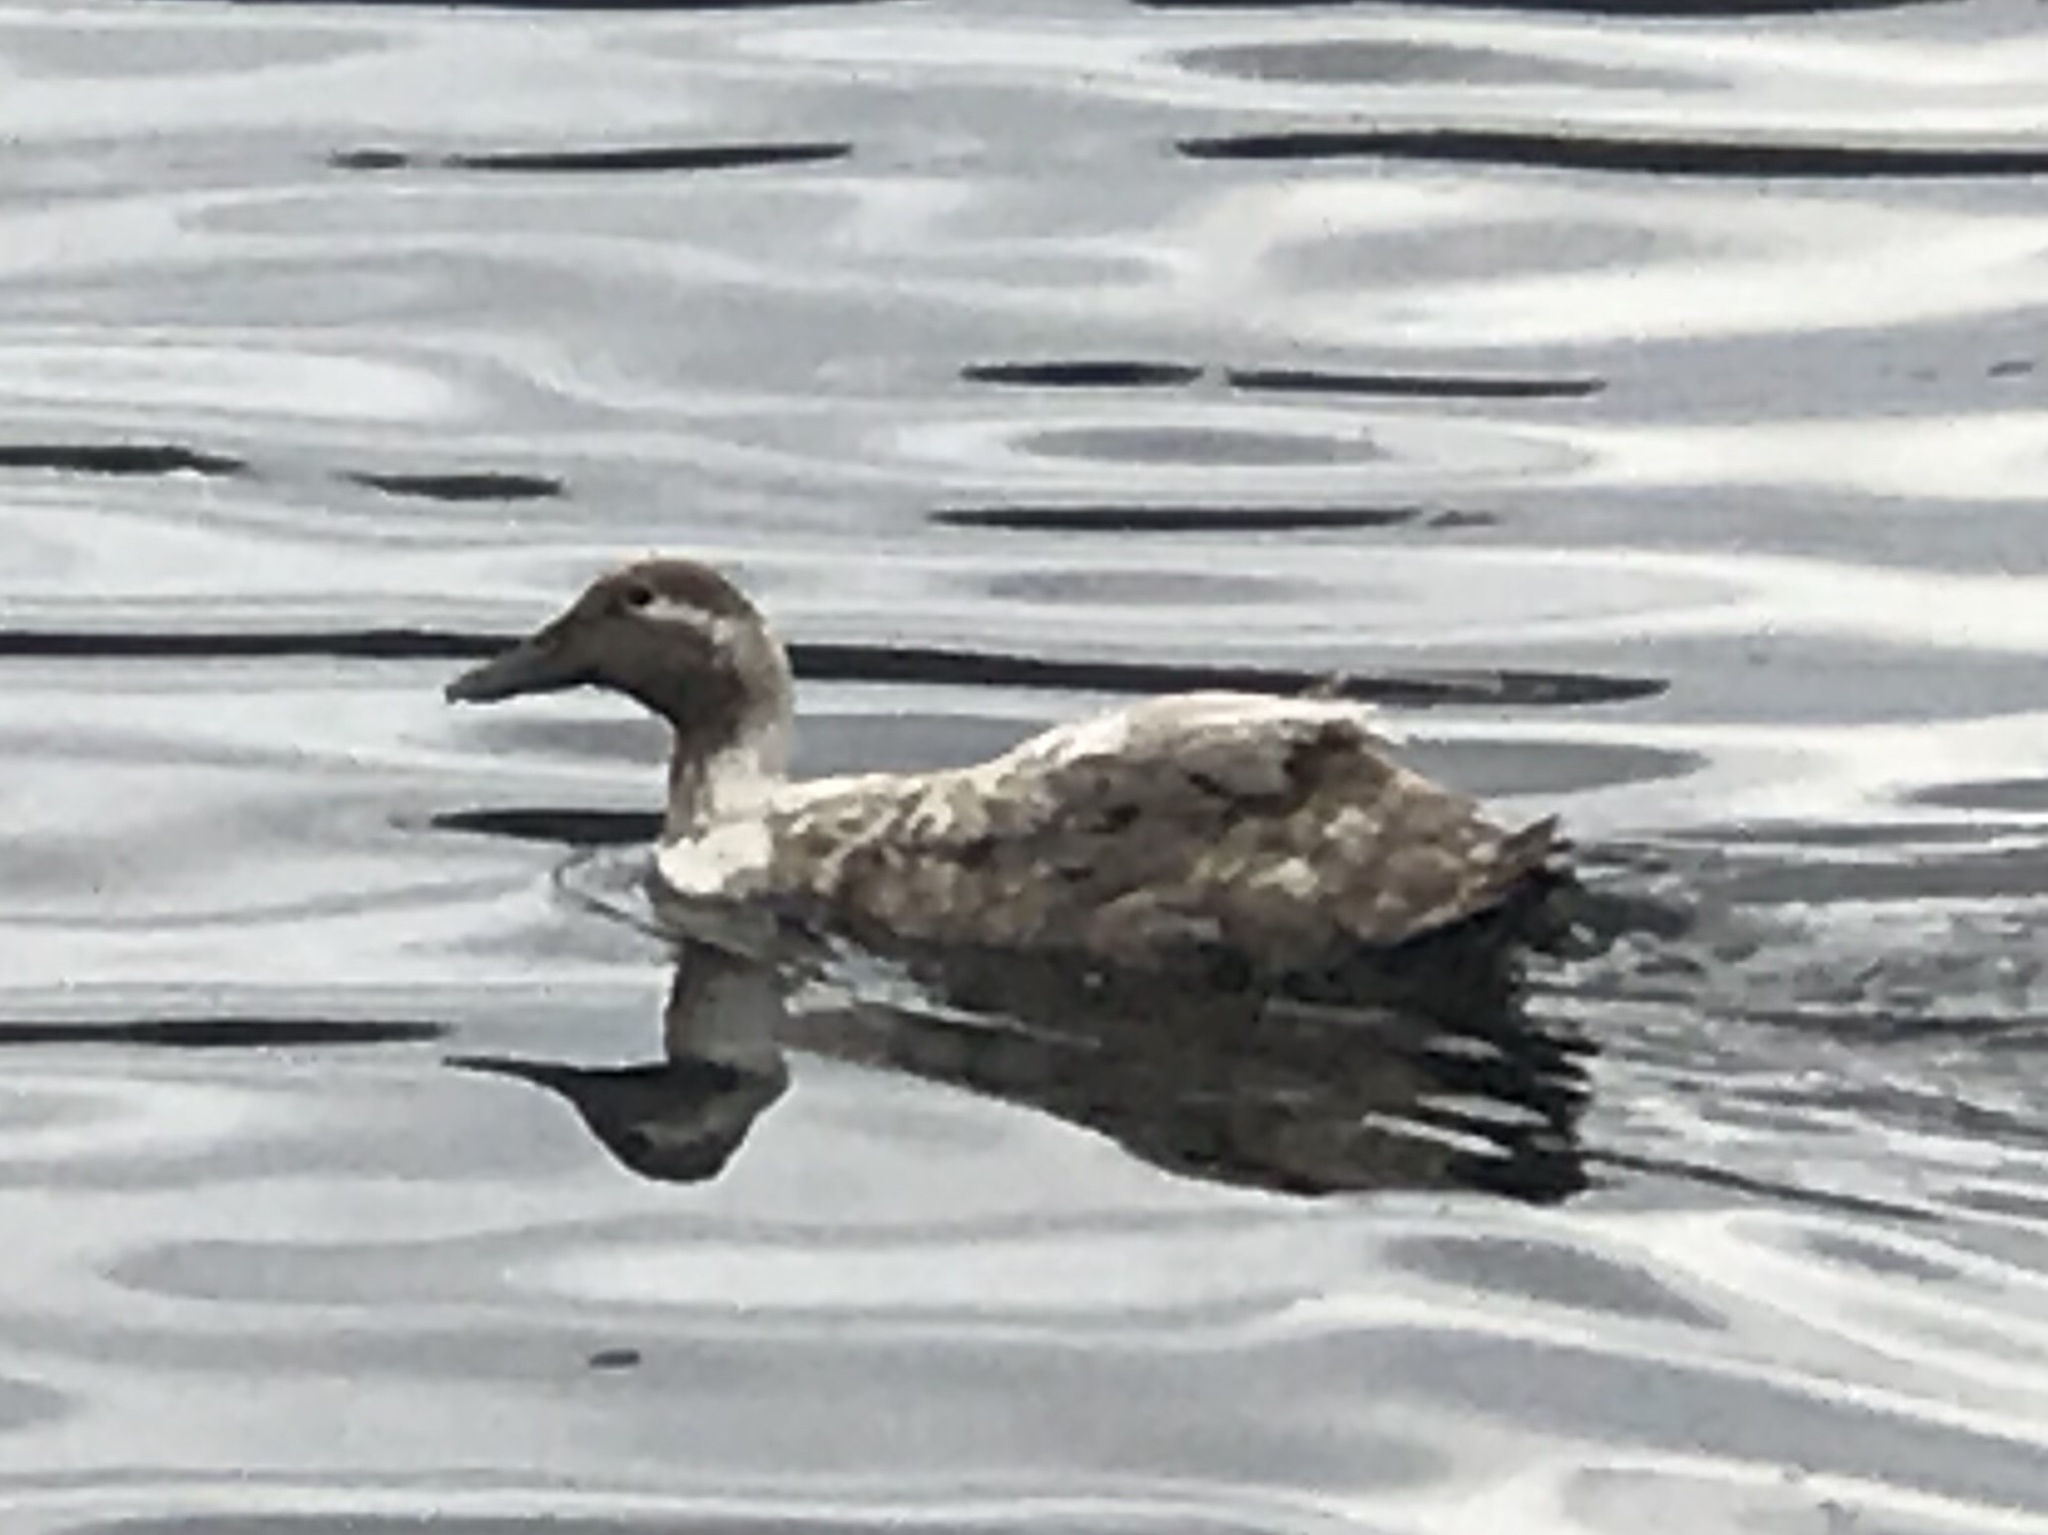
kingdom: Animalia
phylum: Chordata
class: Aves
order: Anseriformes
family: Anatidae
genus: Anas
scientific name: Anas platyrhynchos
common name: Mallard
